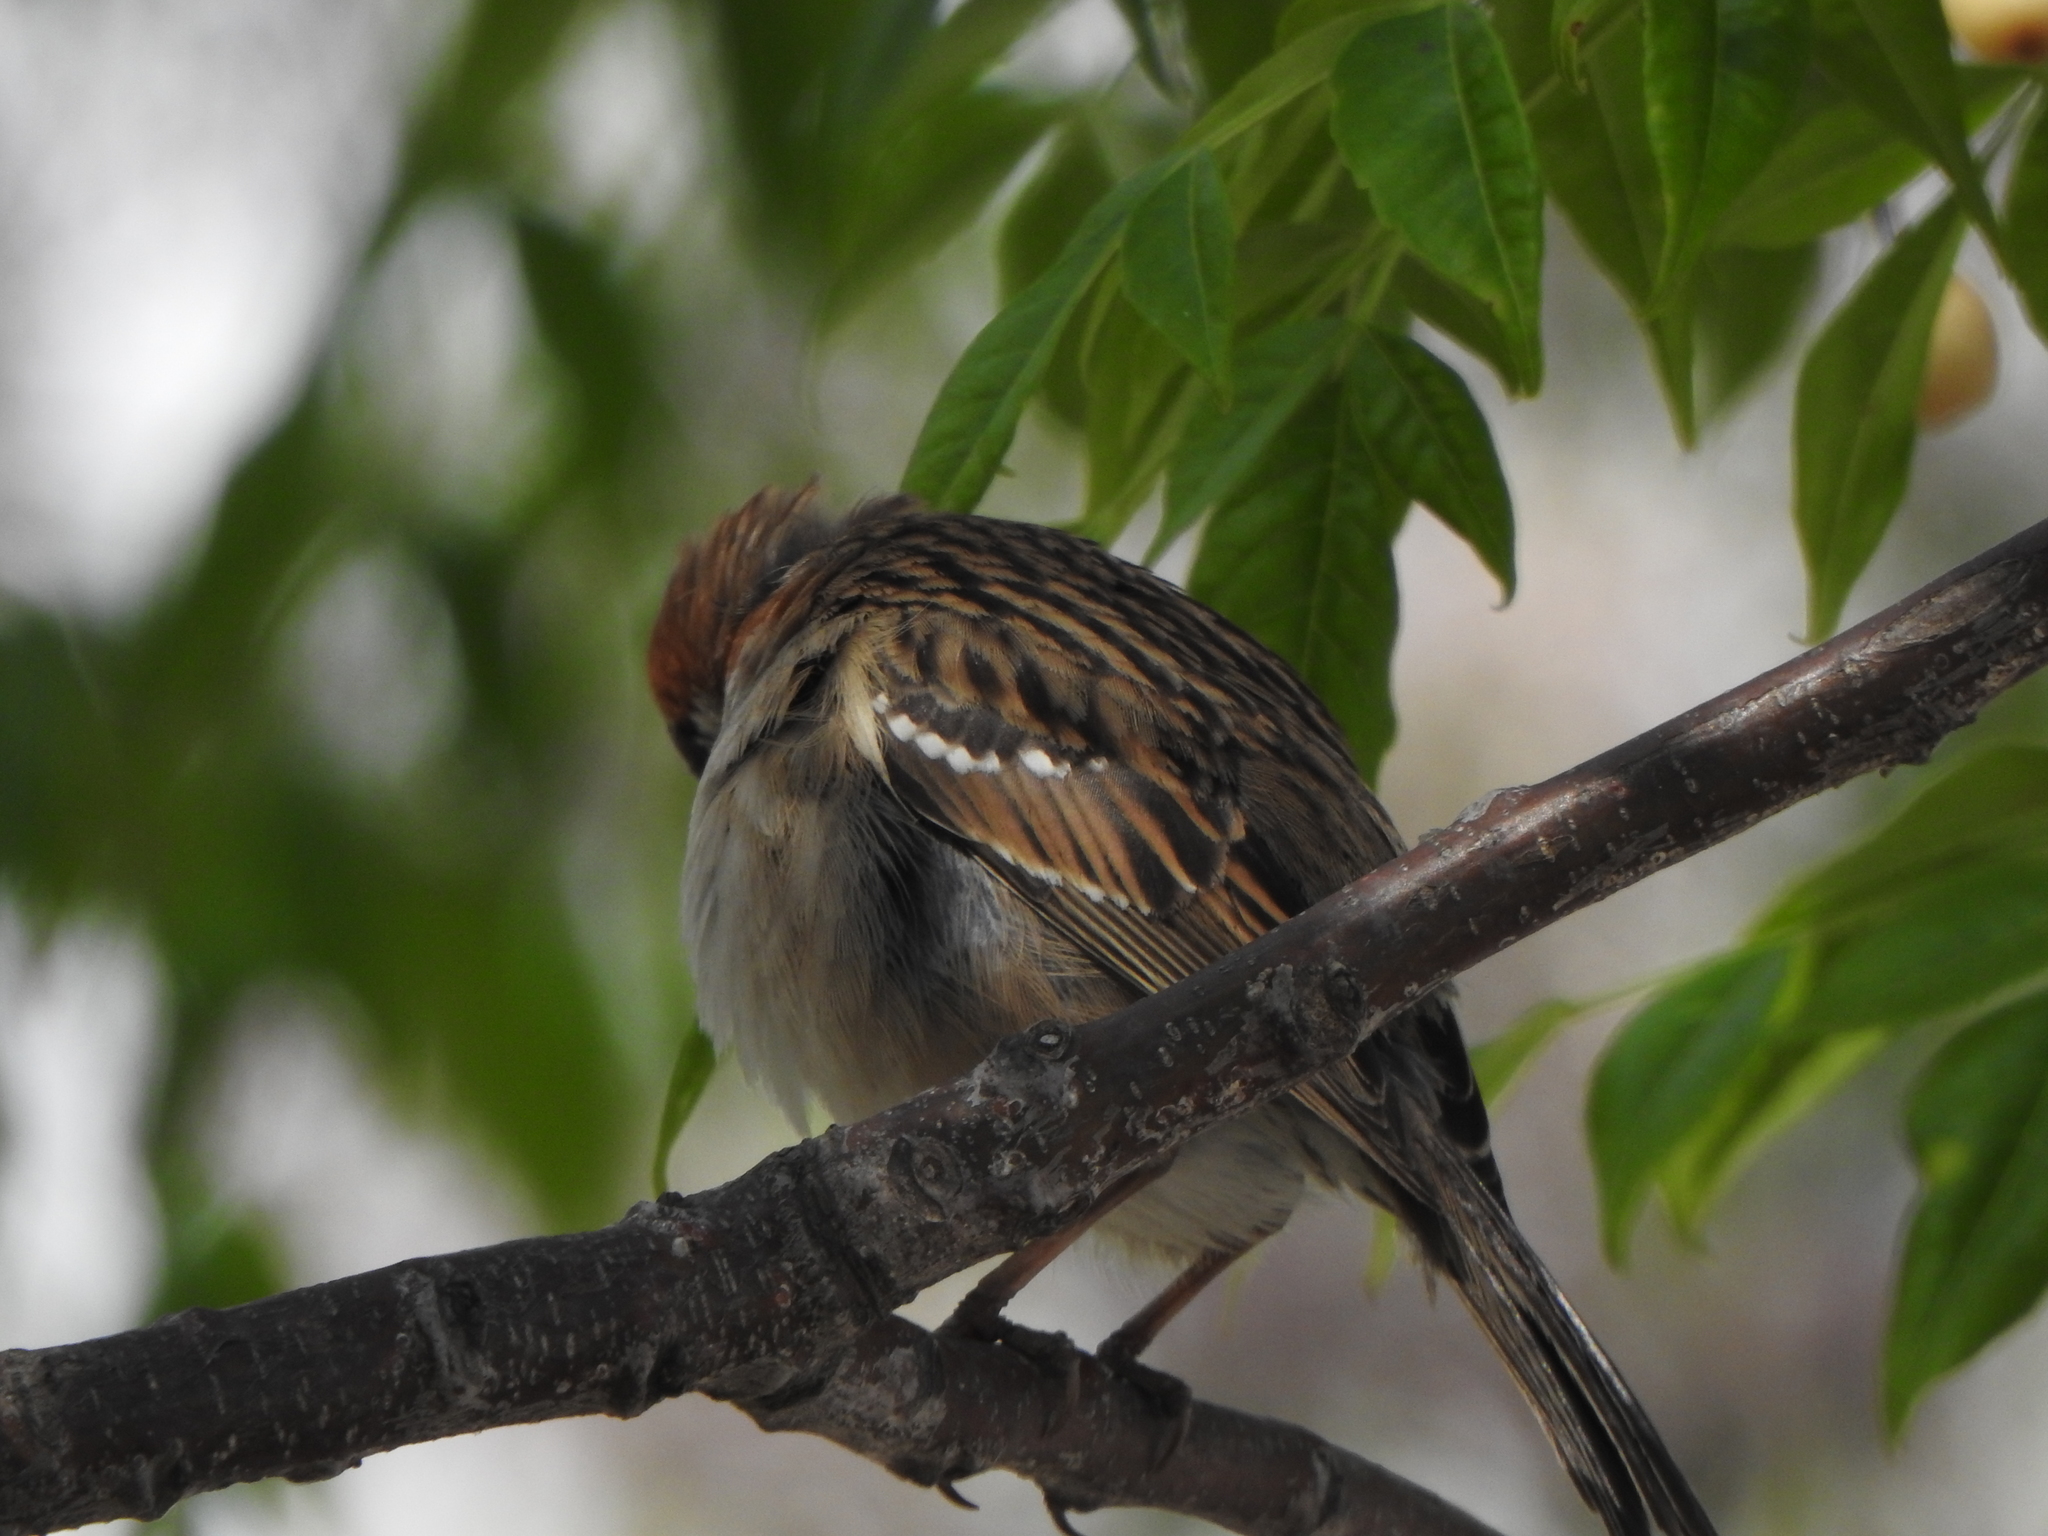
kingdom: Animalia
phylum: Chordata
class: Aves
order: Passeriformes
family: Passerellidae
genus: Zonotrichia
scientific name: Zonotrichia capensis
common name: Rufous-collared sparrow
